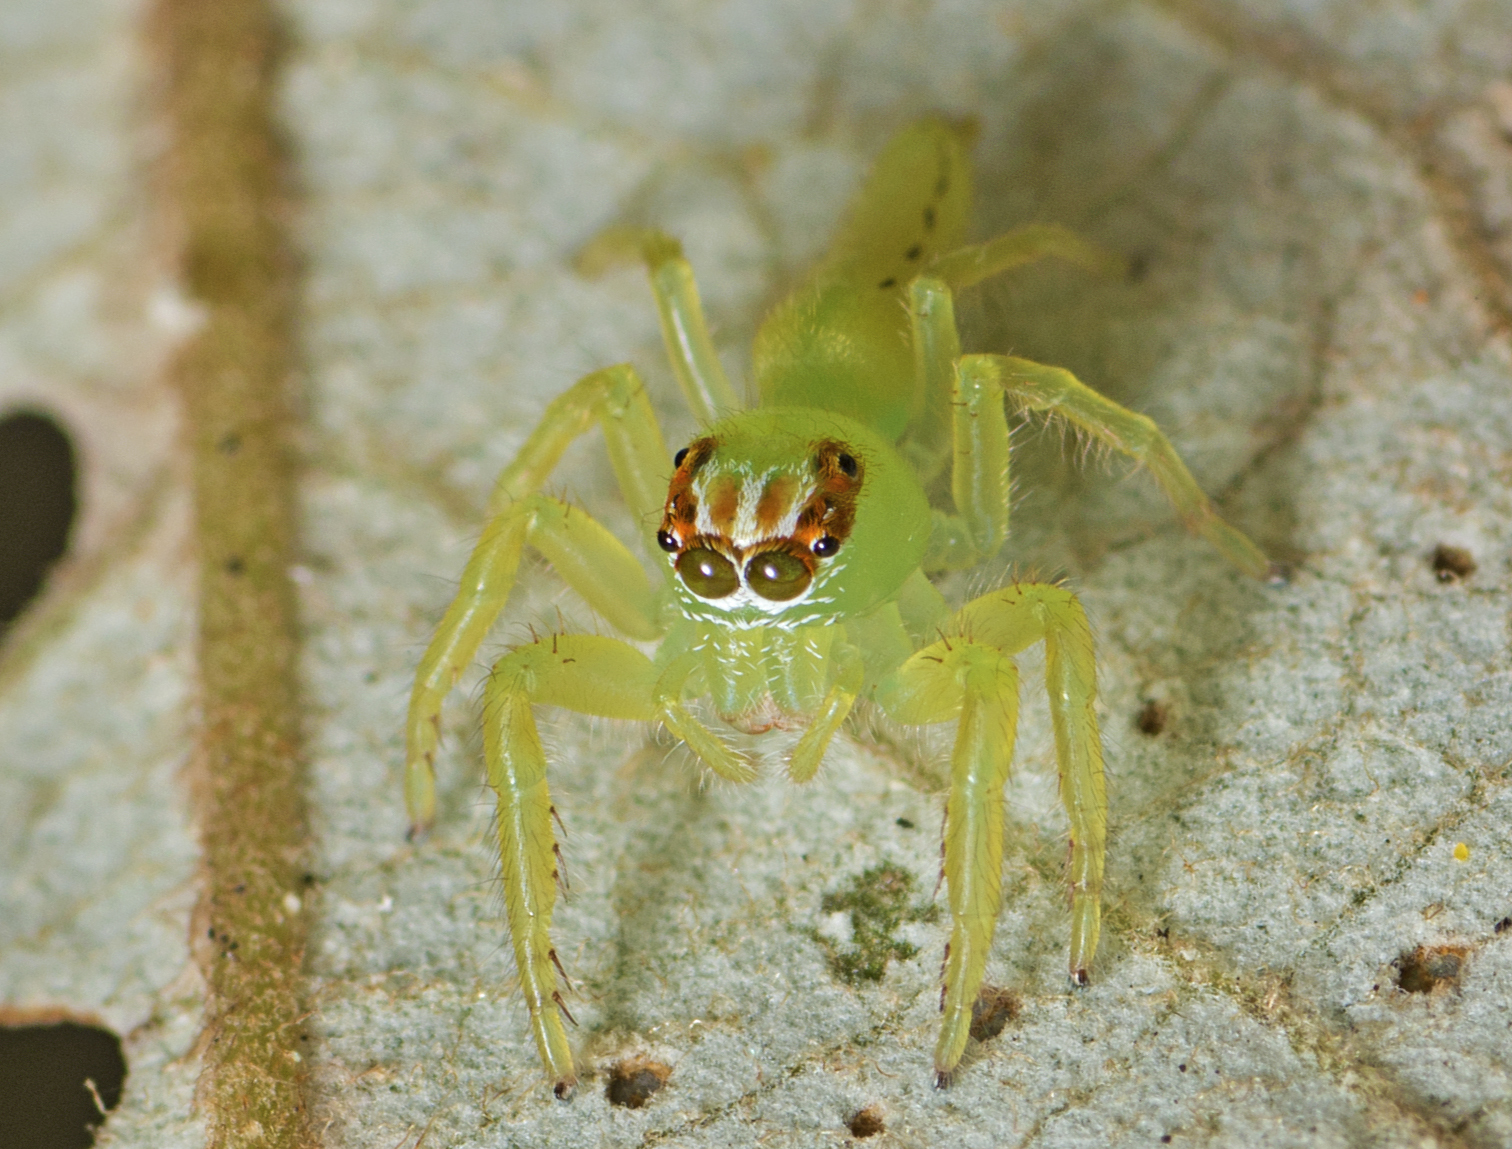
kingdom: Animalia
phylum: Arthropoda
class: Arachnida
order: Araneae
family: Salticidae
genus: Mopsus
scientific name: Mopsus mormon
